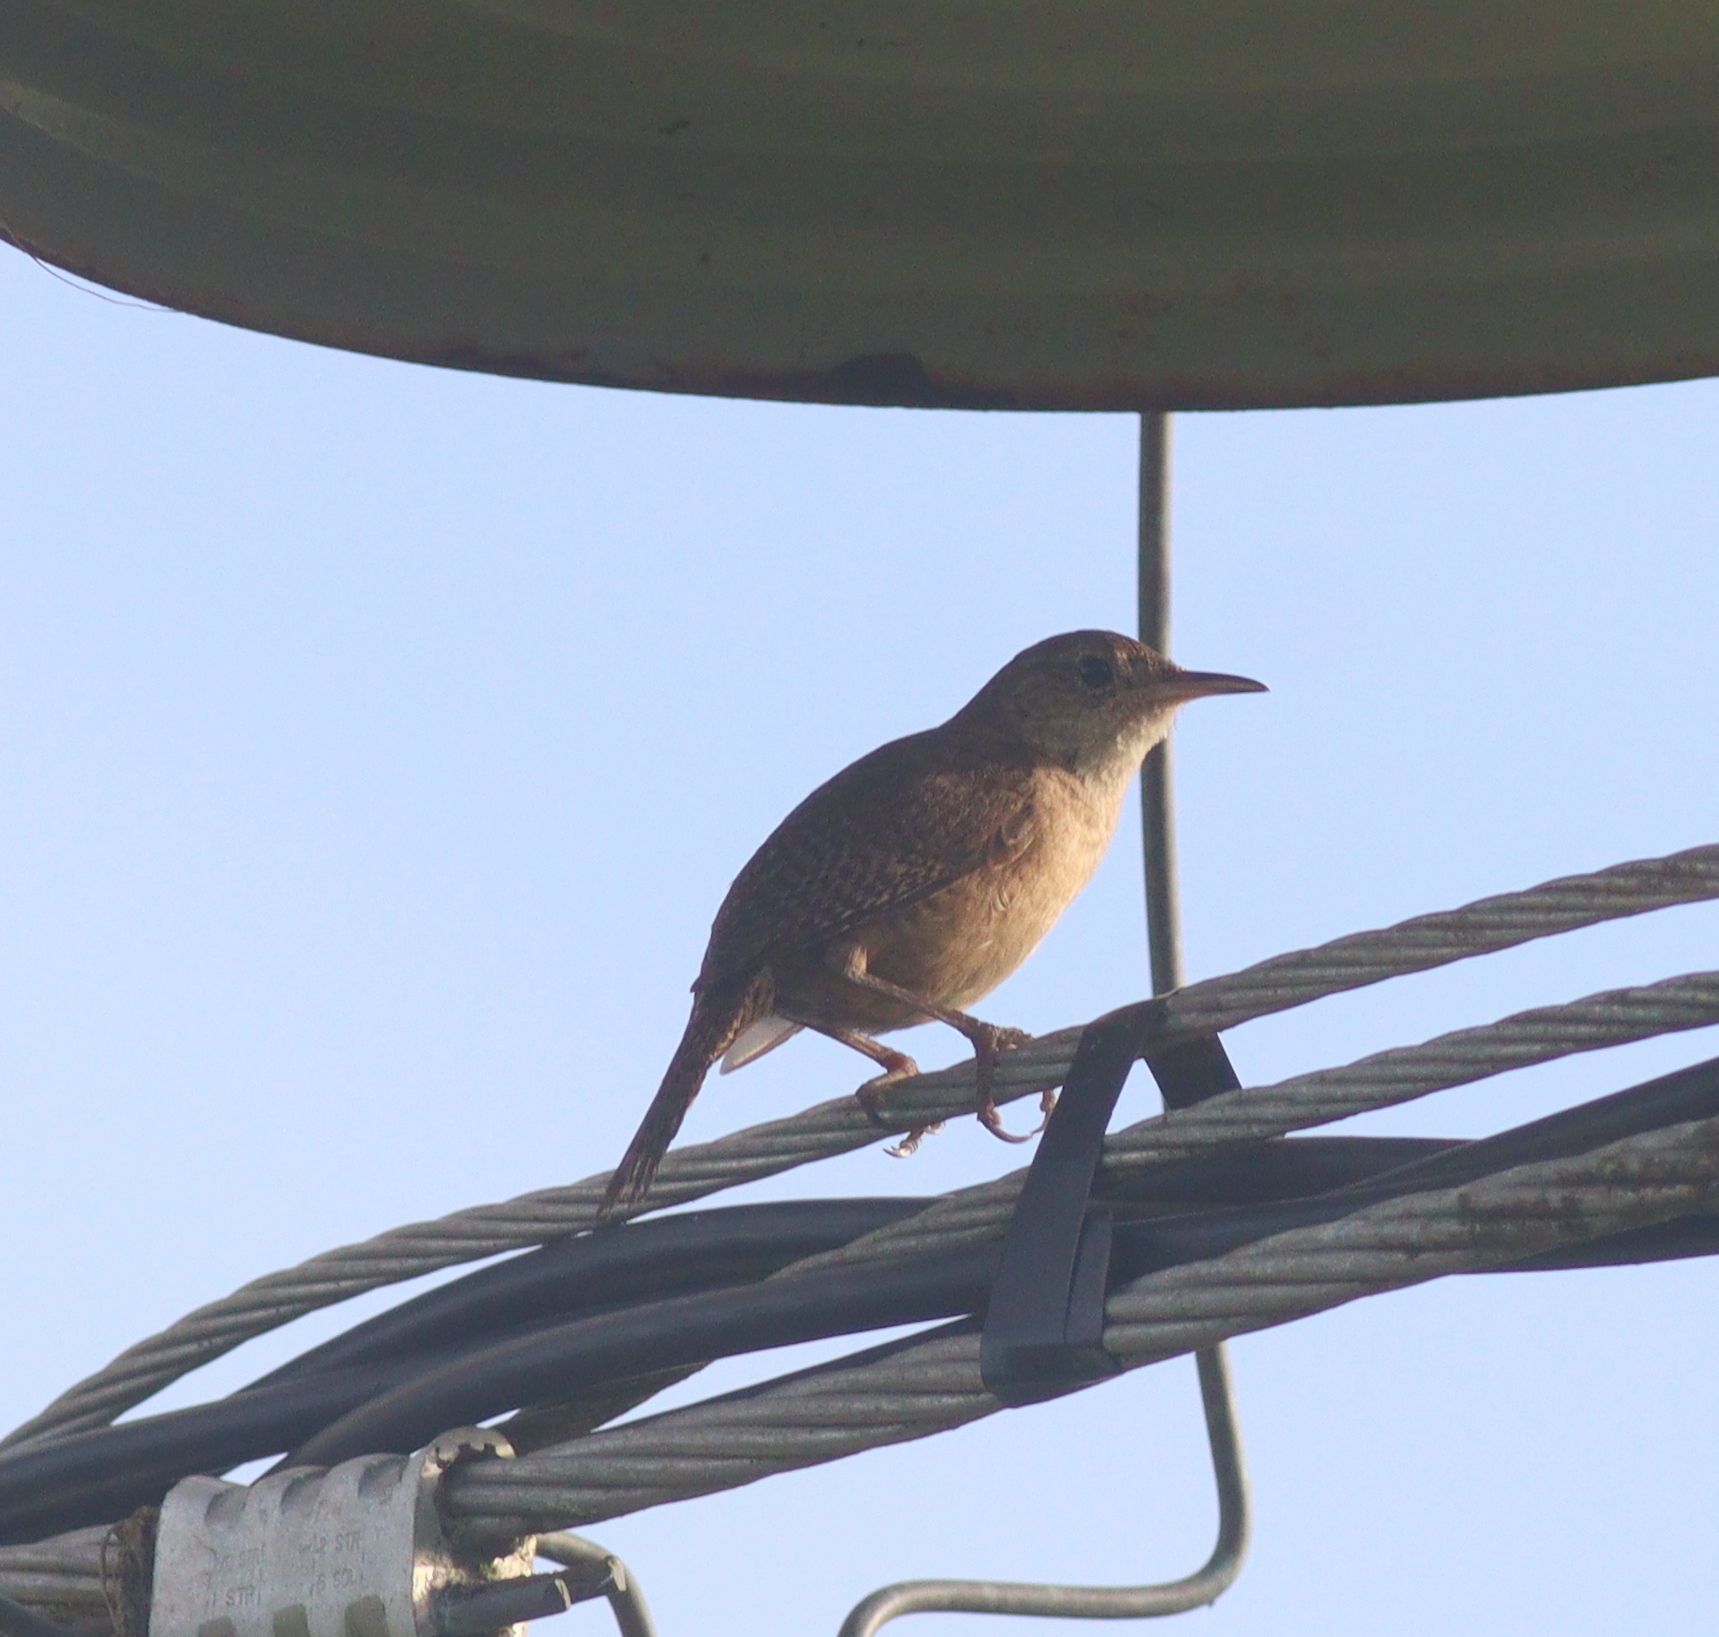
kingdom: Animalia
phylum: Chordata
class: Aves
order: Passeriformes
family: Troglodytidae
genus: Troglodytes
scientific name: Troglodytes aedon
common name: House wren
